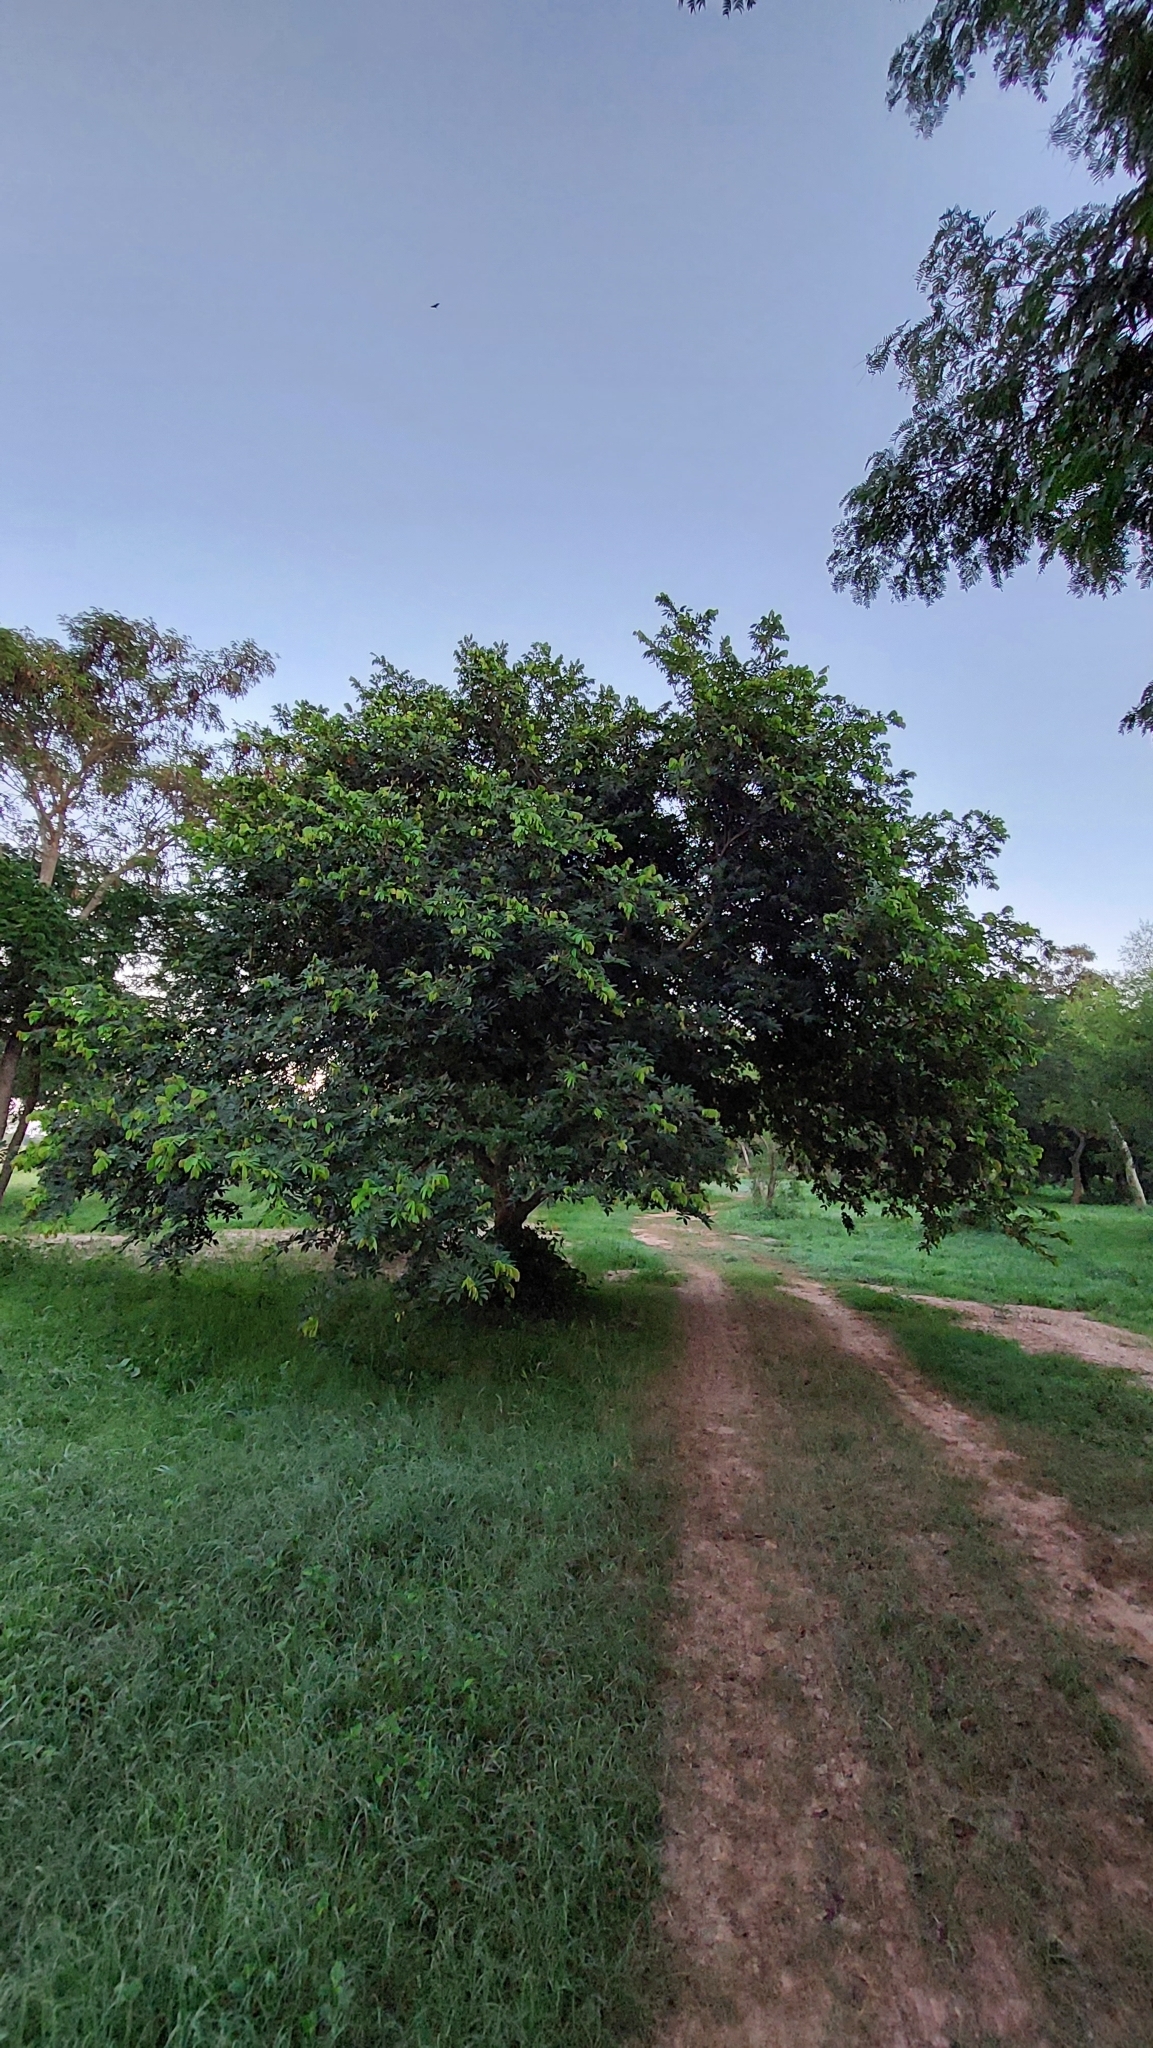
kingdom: Plantae
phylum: Tracheophyta
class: Magnoliopsida
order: Fabales
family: Fabaceae
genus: Inga
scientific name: Inga uraguensis
